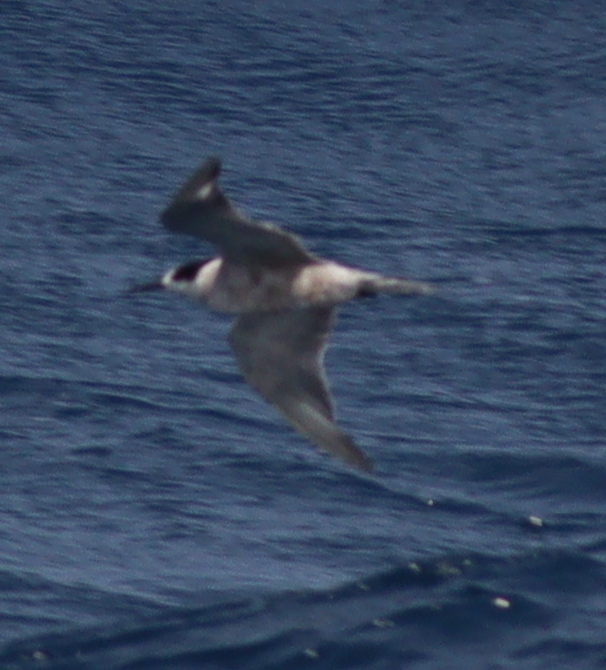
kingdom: Animalia
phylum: Chordata
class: Aves
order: Charadriiformes
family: Laridae
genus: Sterna
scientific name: Sterna repressa
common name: White-cheeked tern
